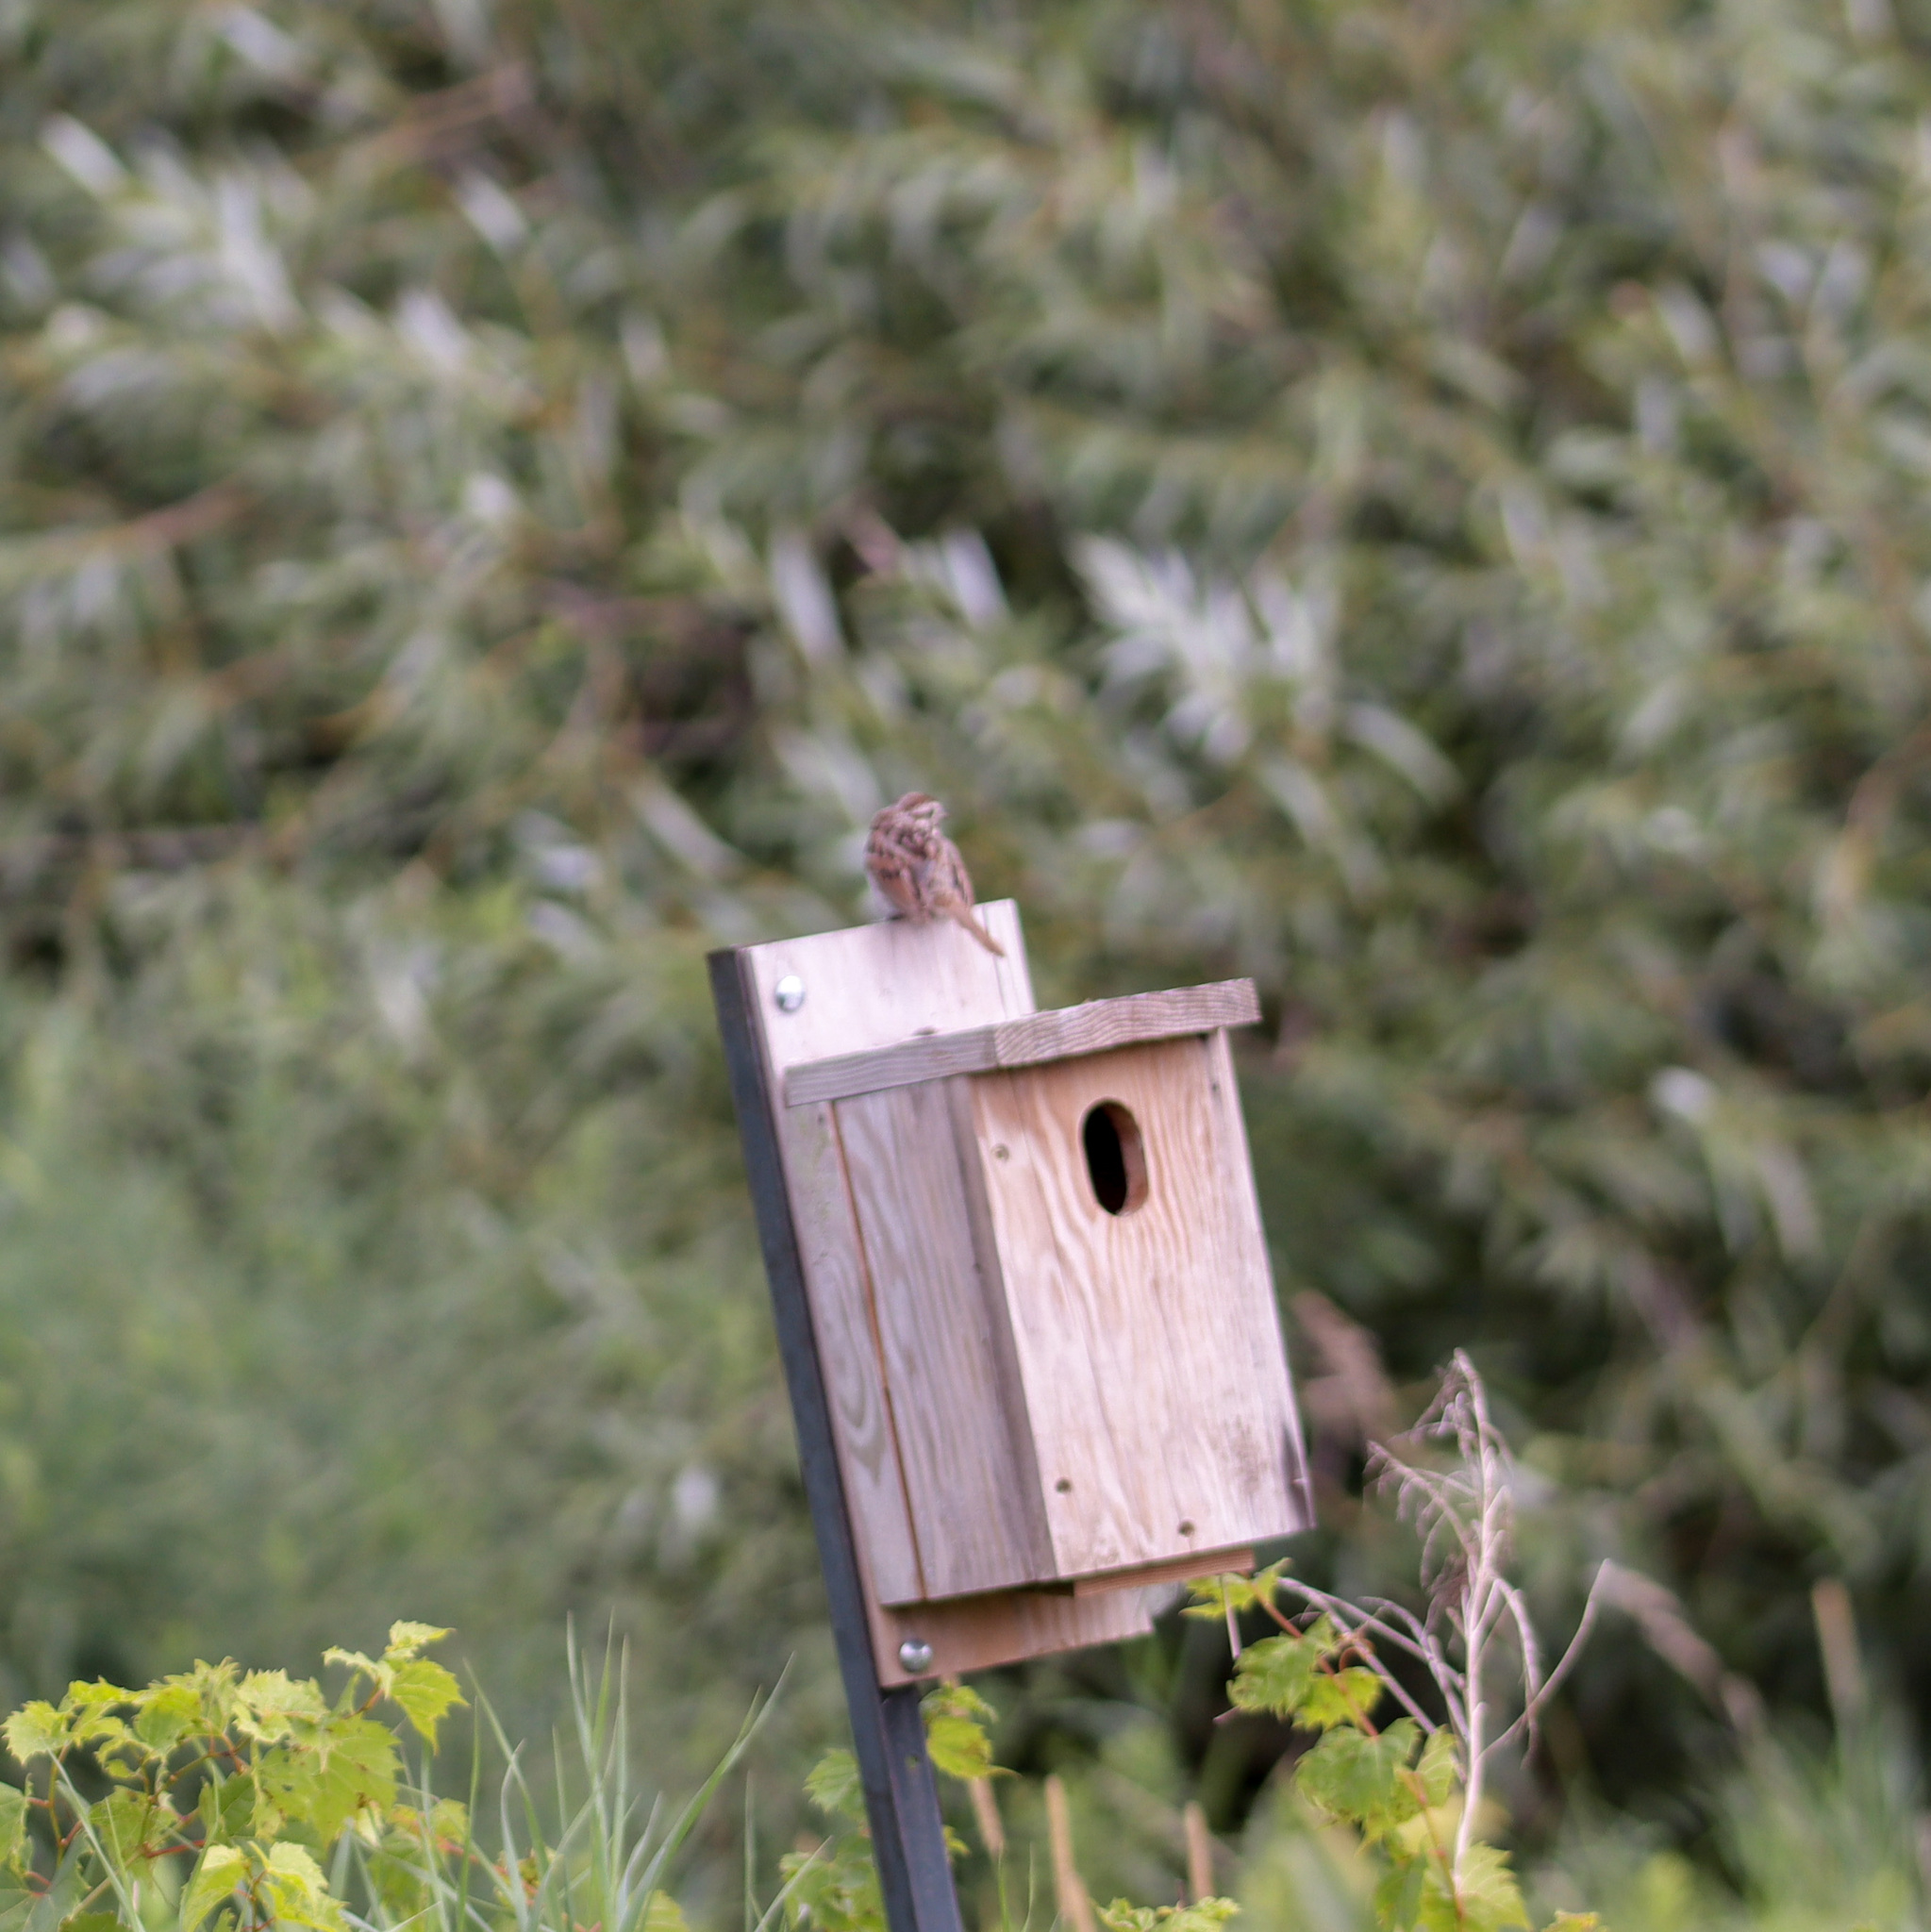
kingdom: Animalia
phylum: Chordata
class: Aves
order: Passeriformes
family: Passerellidae
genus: Melospiza
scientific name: Melospiza melodia
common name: Song sparrow
